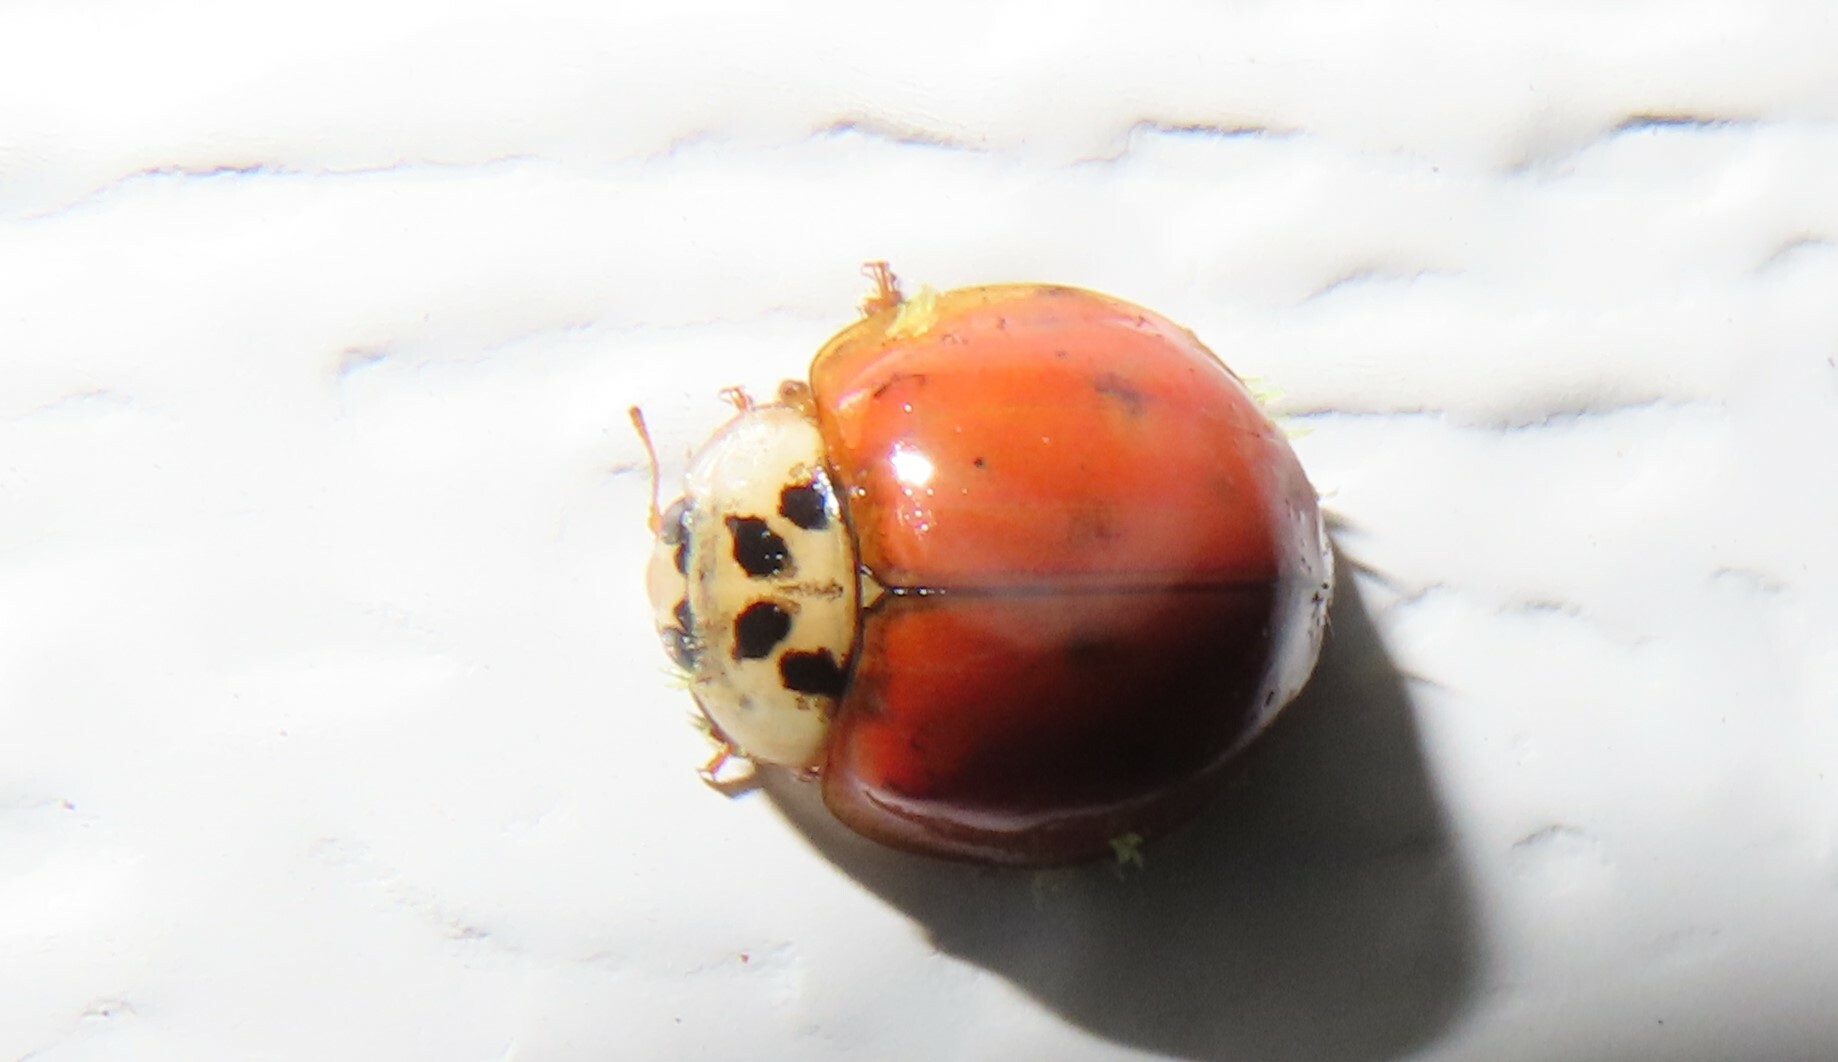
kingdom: Fungi
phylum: Ascomycota
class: Laboulbeniomycetes
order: Laboulbeniales
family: Laboulbeniaceae
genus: Hesperomyces
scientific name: Hesperomyces harmoniae
